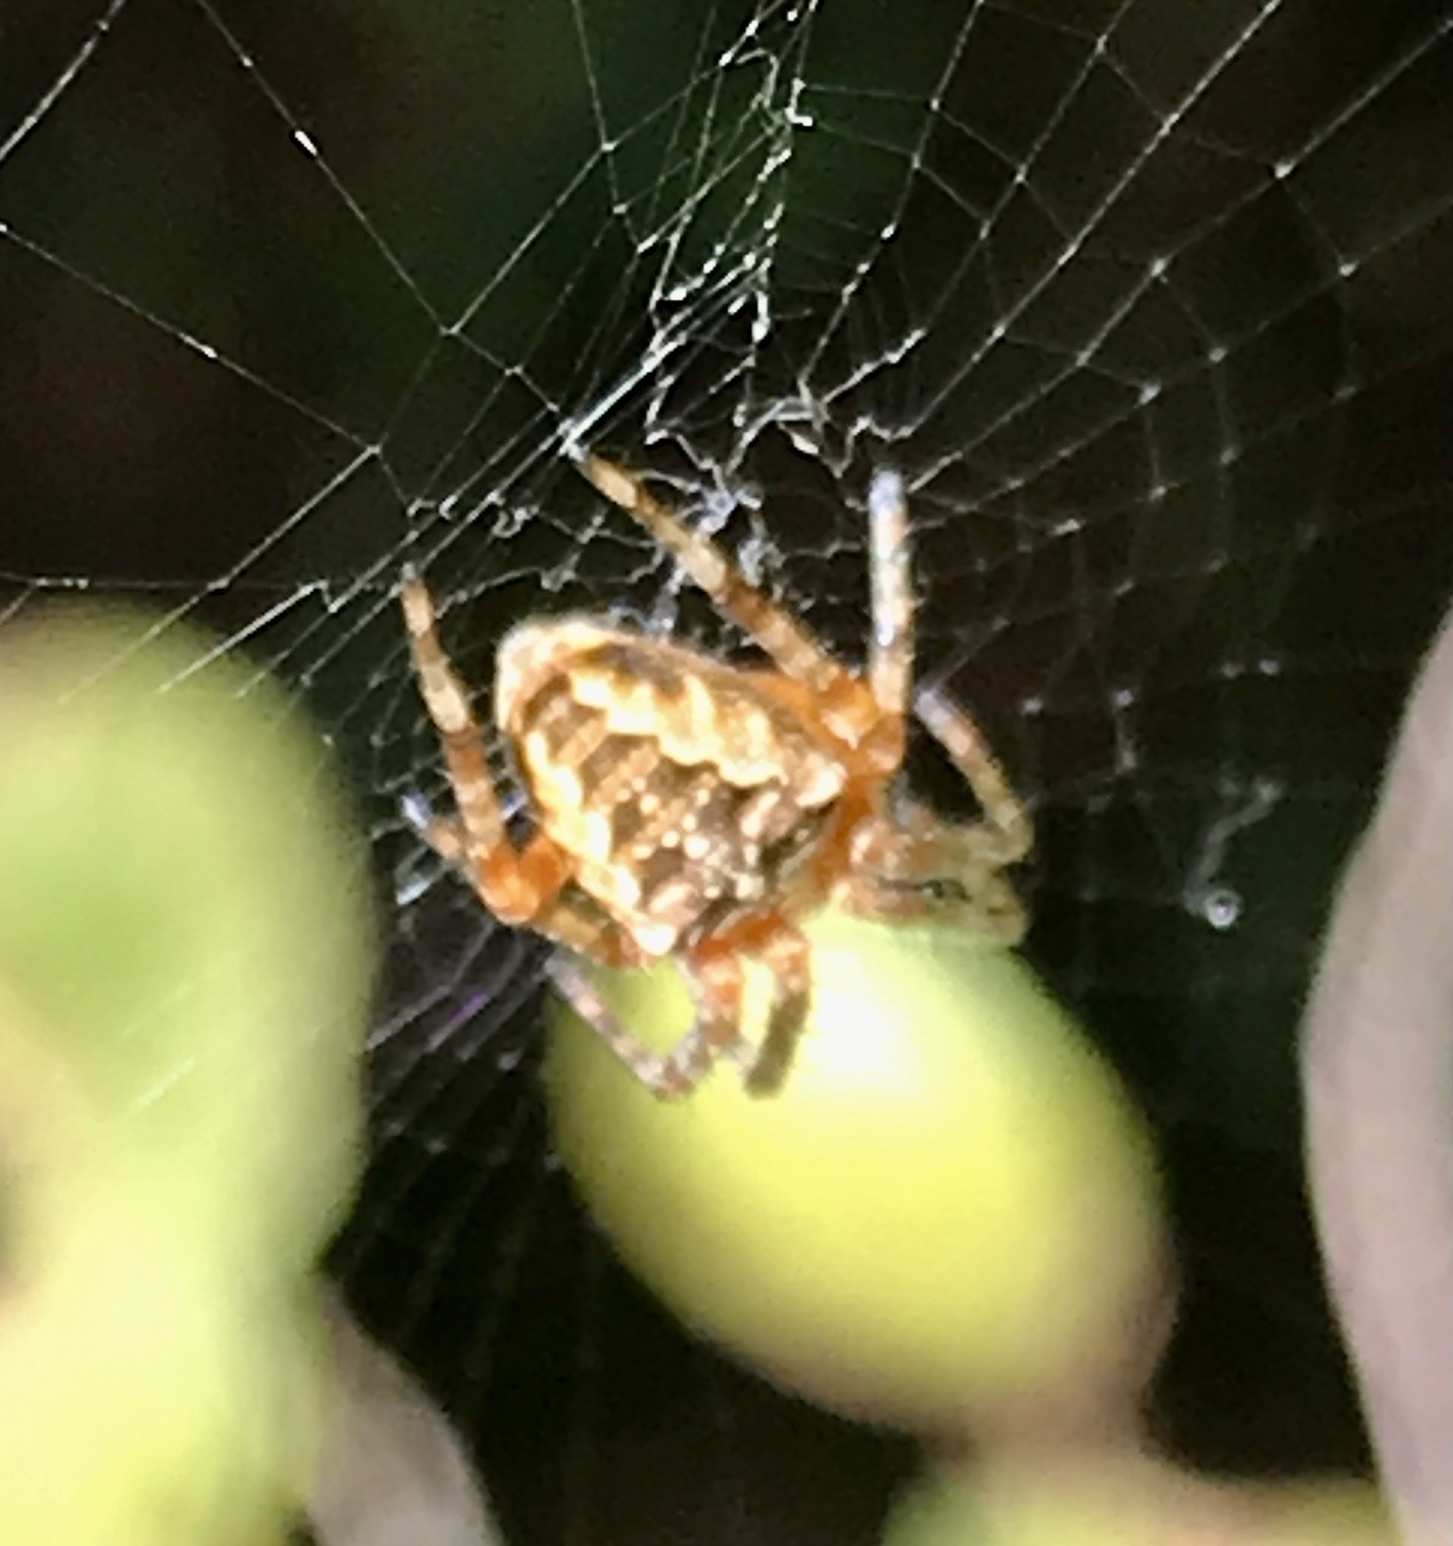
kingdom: Animalia
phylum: Arthropoda
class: Arachnida
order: Araneae
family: Araneidae
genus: Araneus
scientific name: Araneus diadematus
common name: Cross orbweaver
